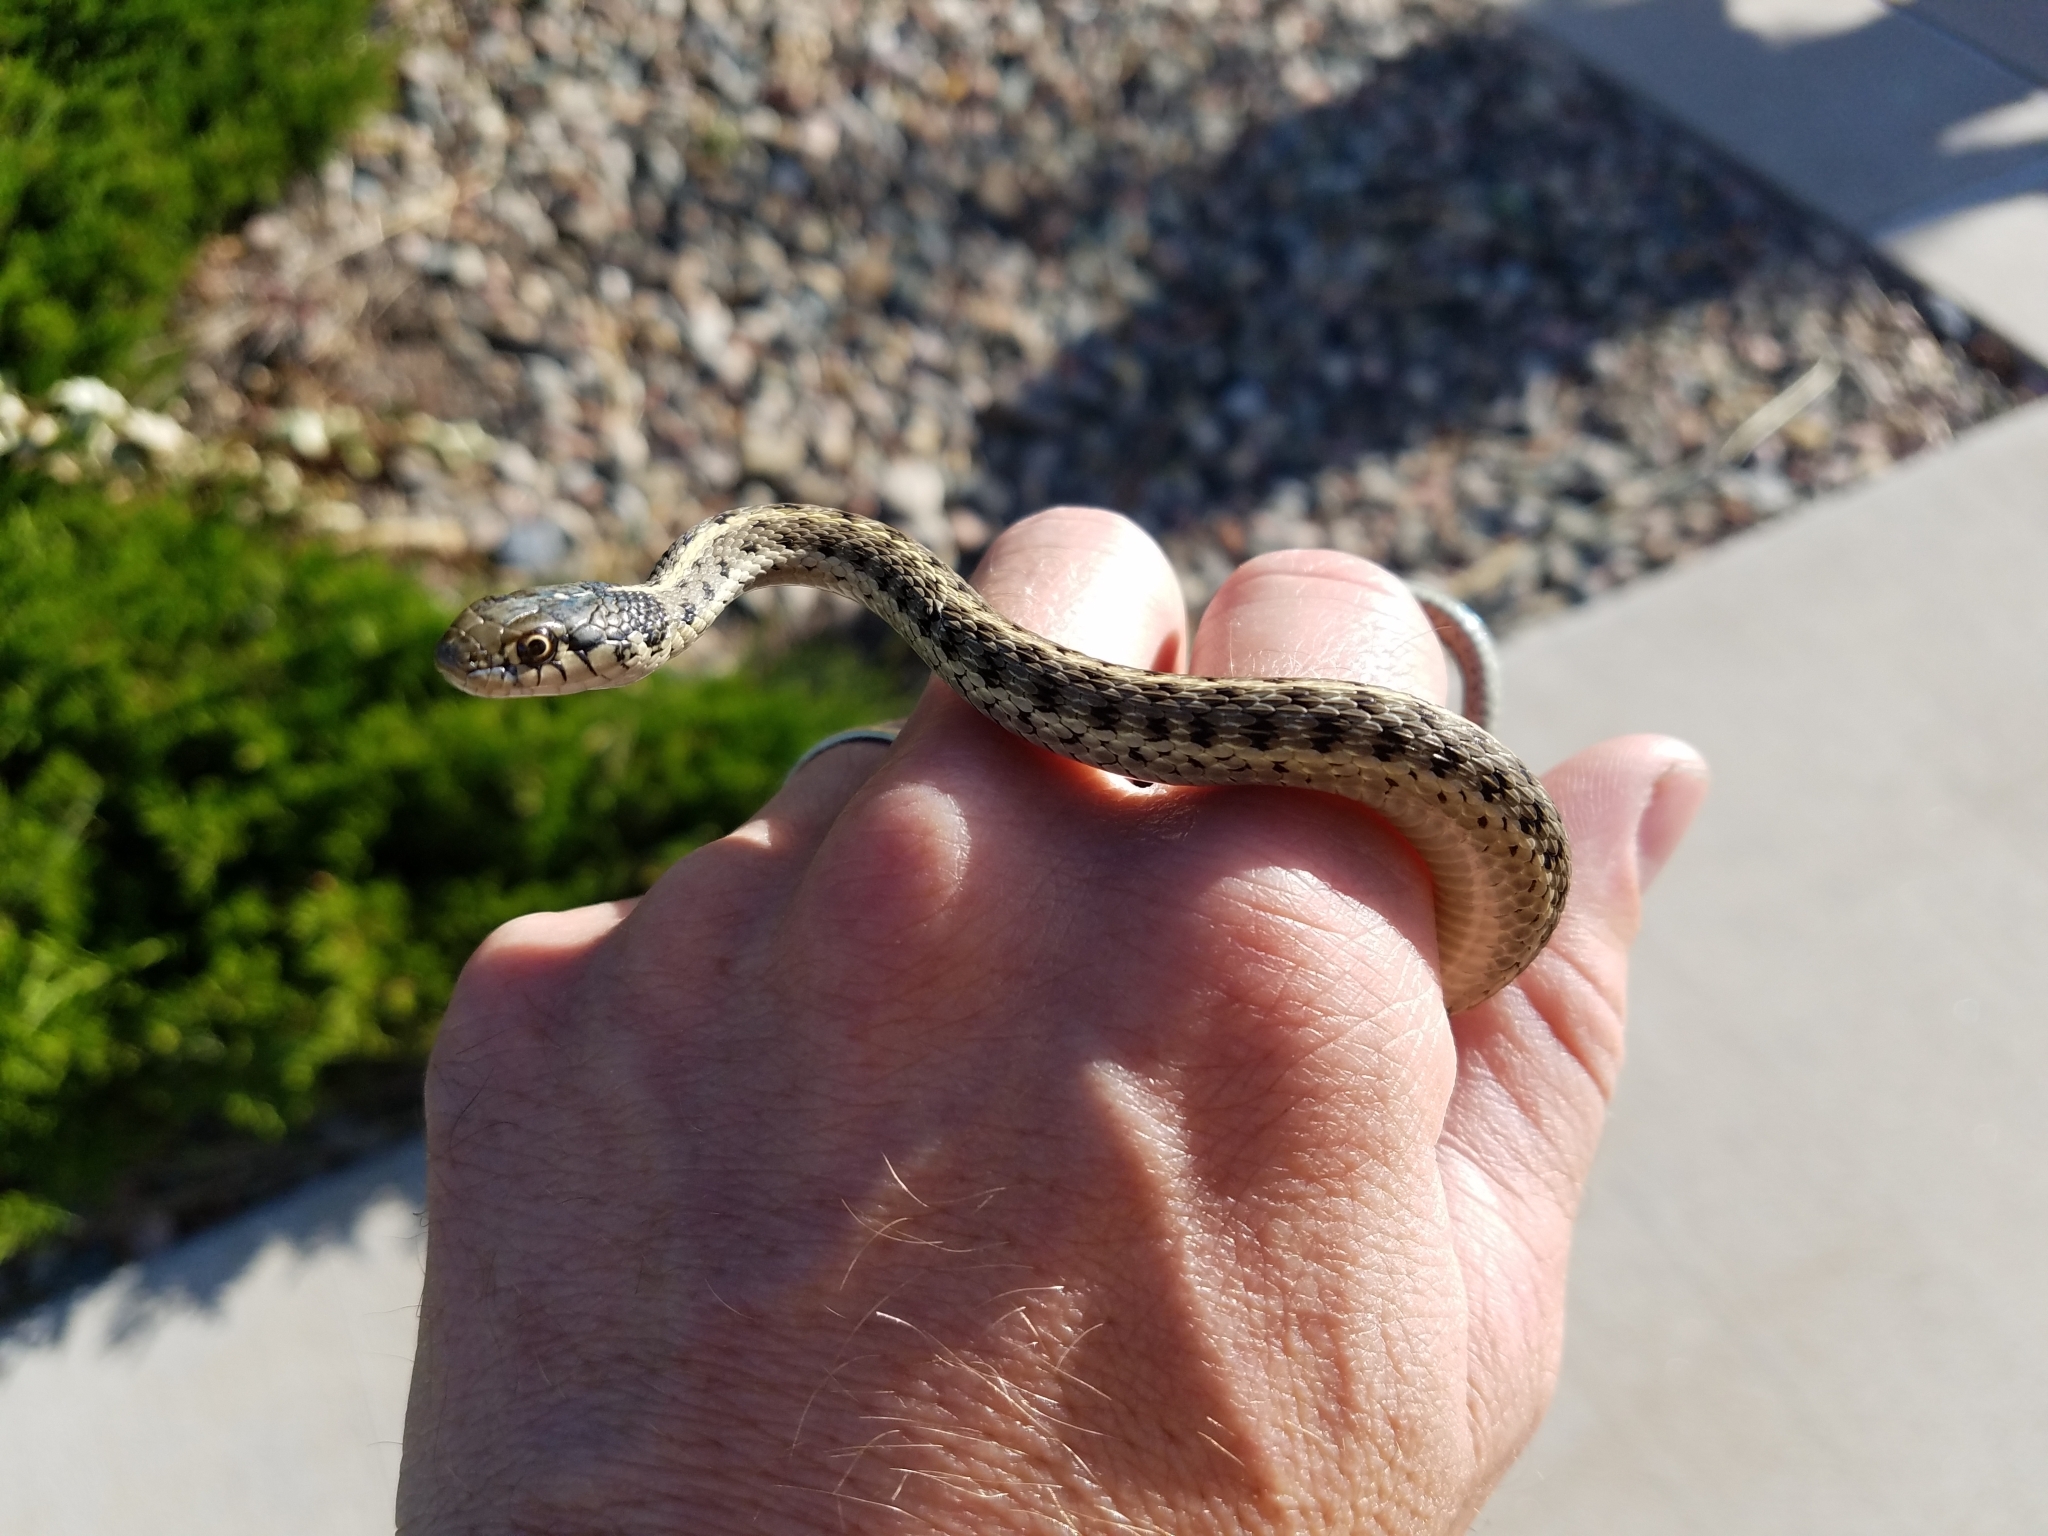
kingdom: Animalia
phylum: Chordata
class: Squamata
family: Colubridae
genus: Thamnophis
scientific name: Thamnophis elegans
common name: Western terrestrial garter snake
